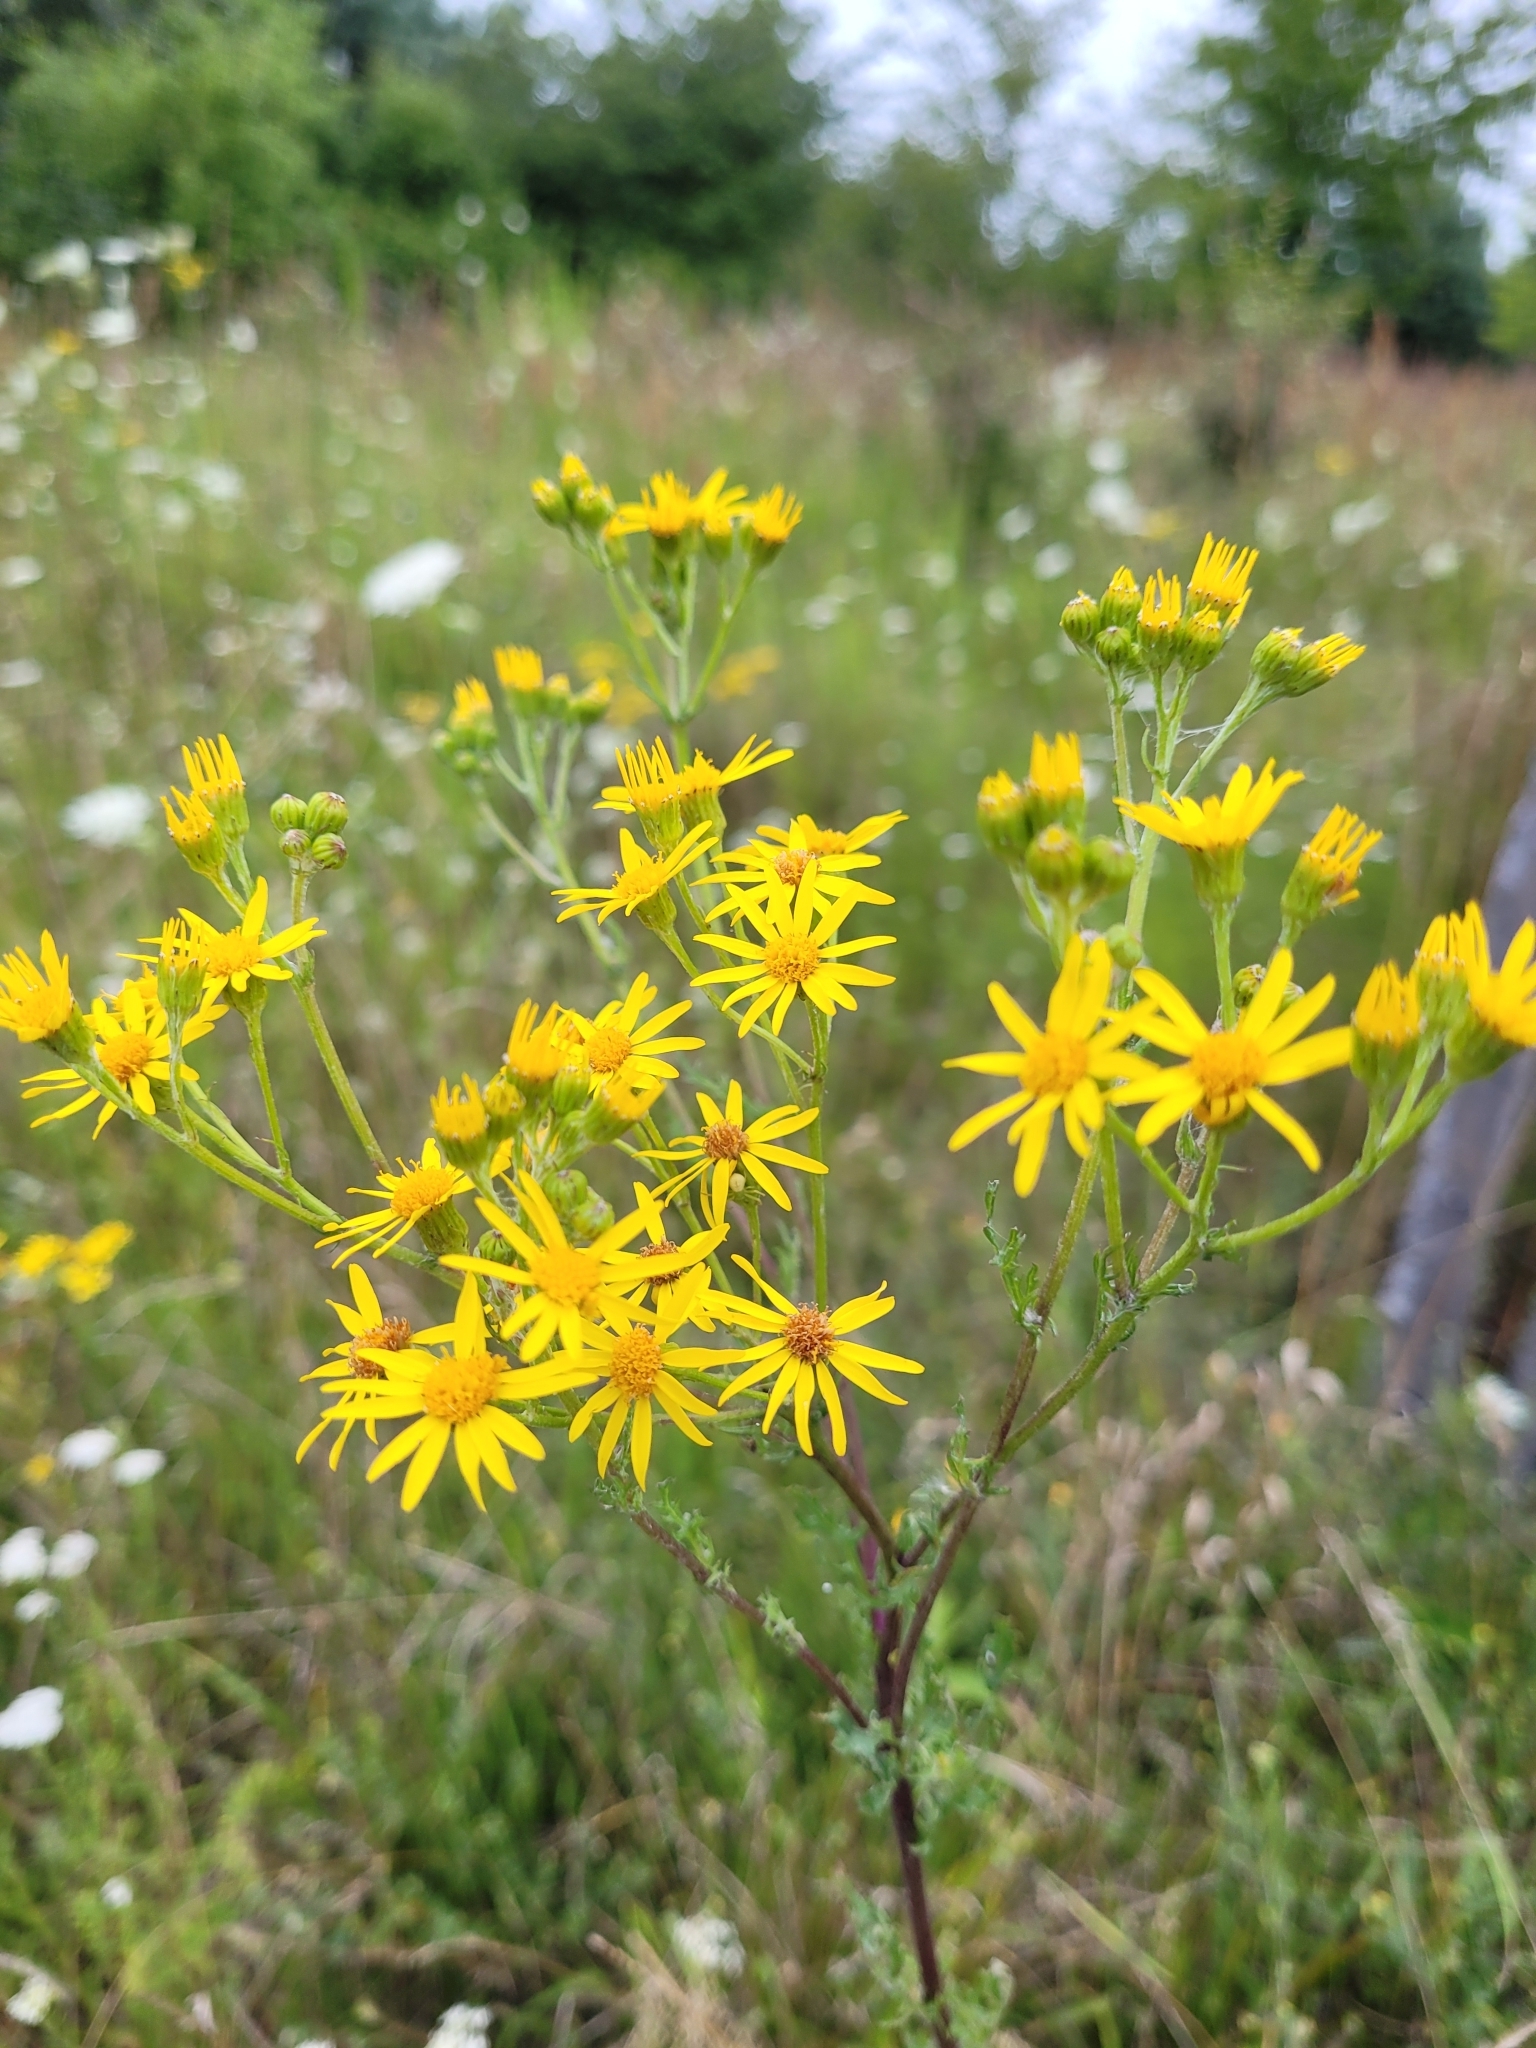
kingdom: Plantae
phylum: Tracheophyta
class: Magnoliopsida
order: Asterales
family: Asteraceae
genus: Jacobaea
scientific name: Jacobaea vulgaris
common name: Stinking willie
